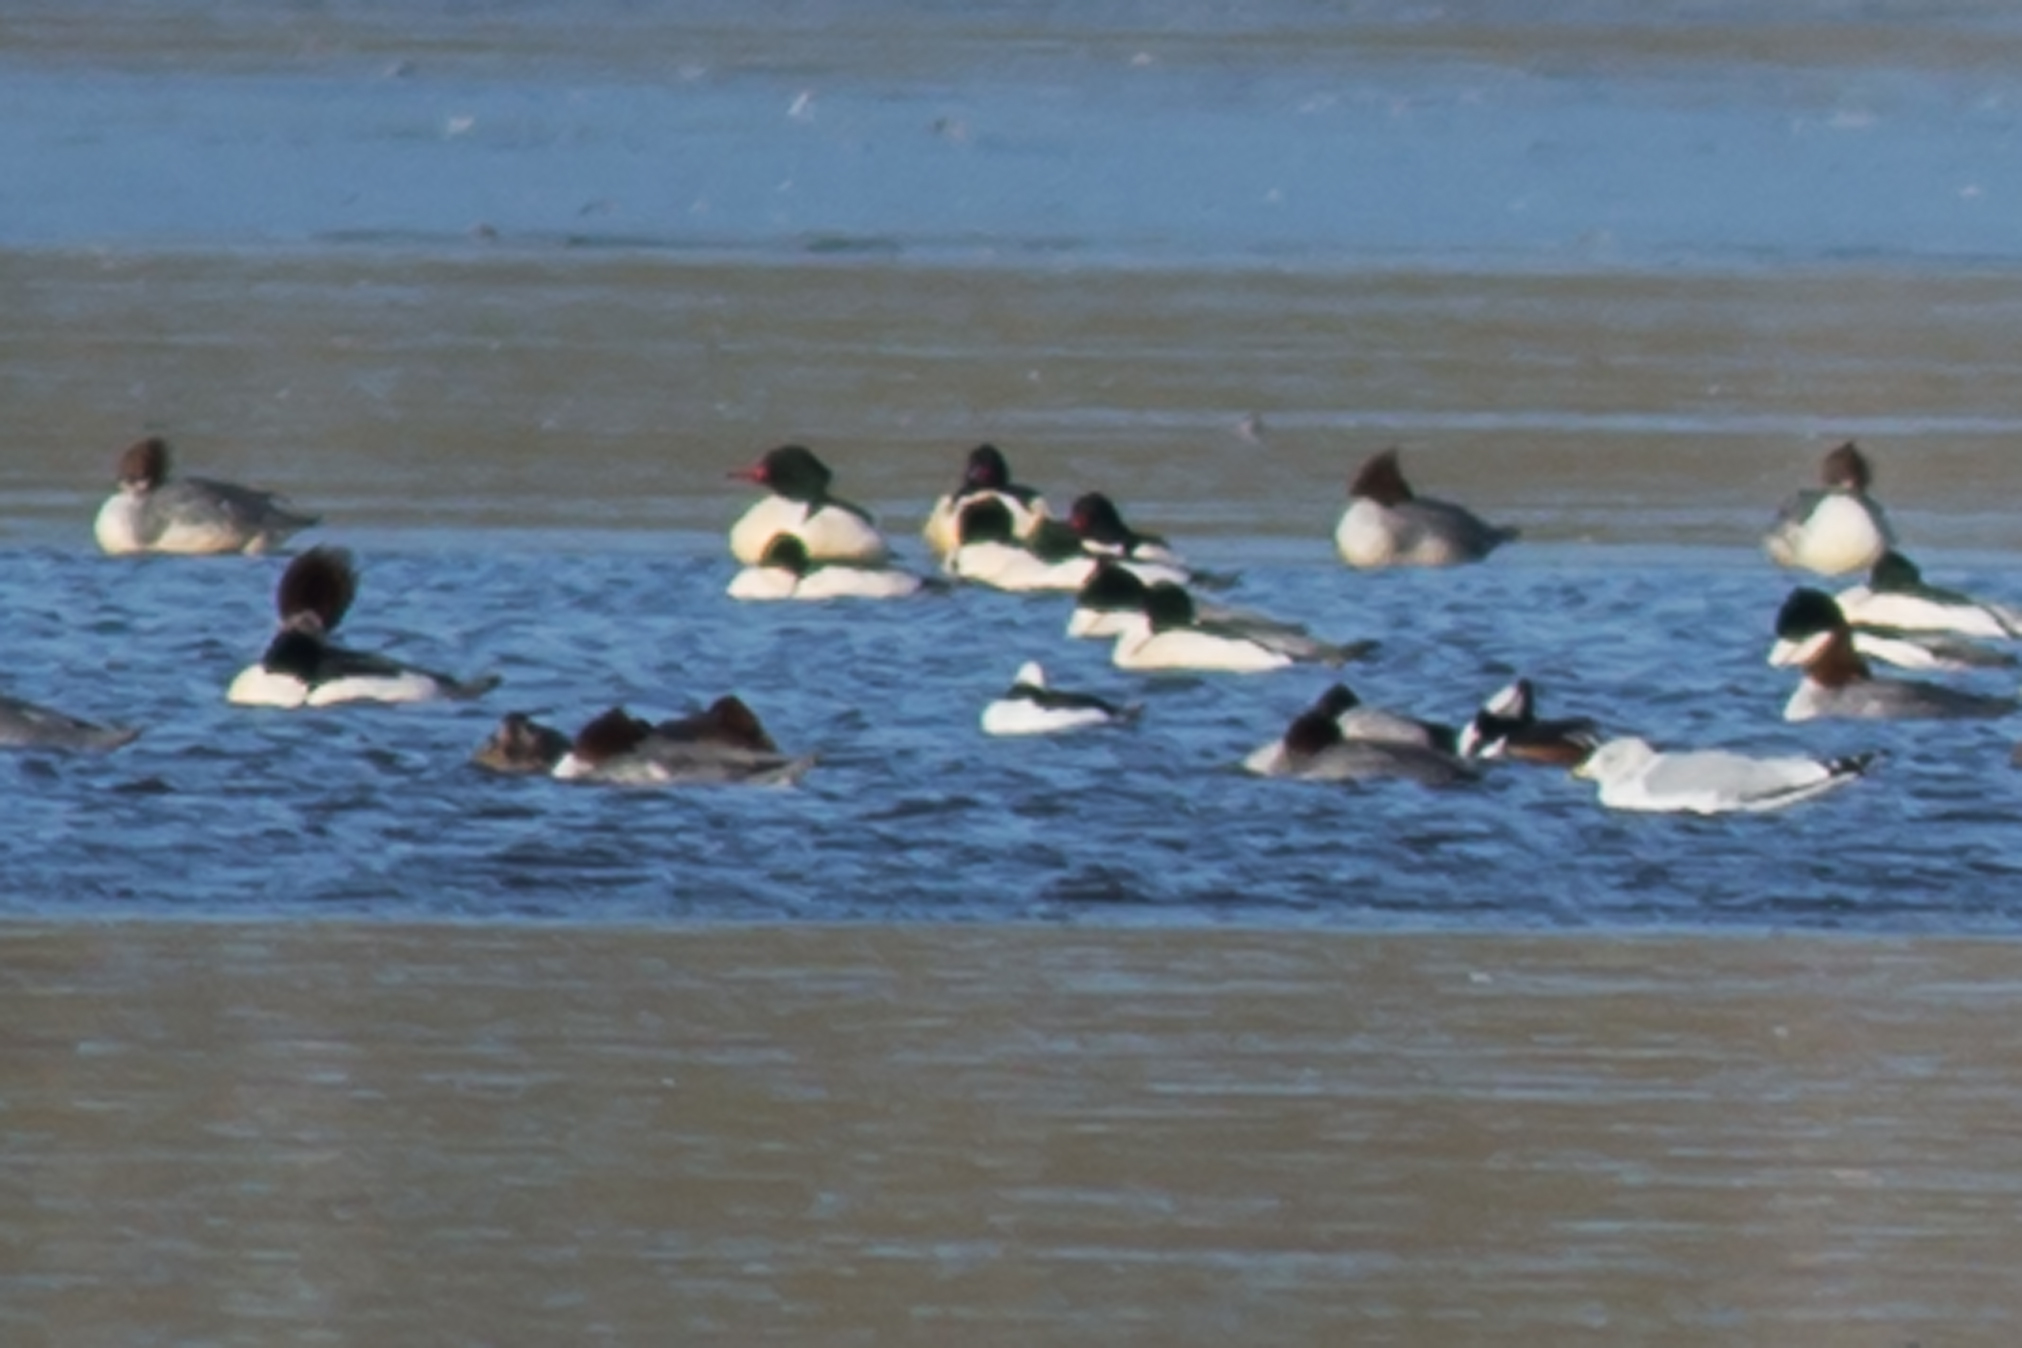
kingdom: Animalia
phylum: Chordata
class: Aves
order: Anseriformes
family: Anatidae
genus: Bucephala
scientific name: Bucephala albeola
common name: Bufflehead
